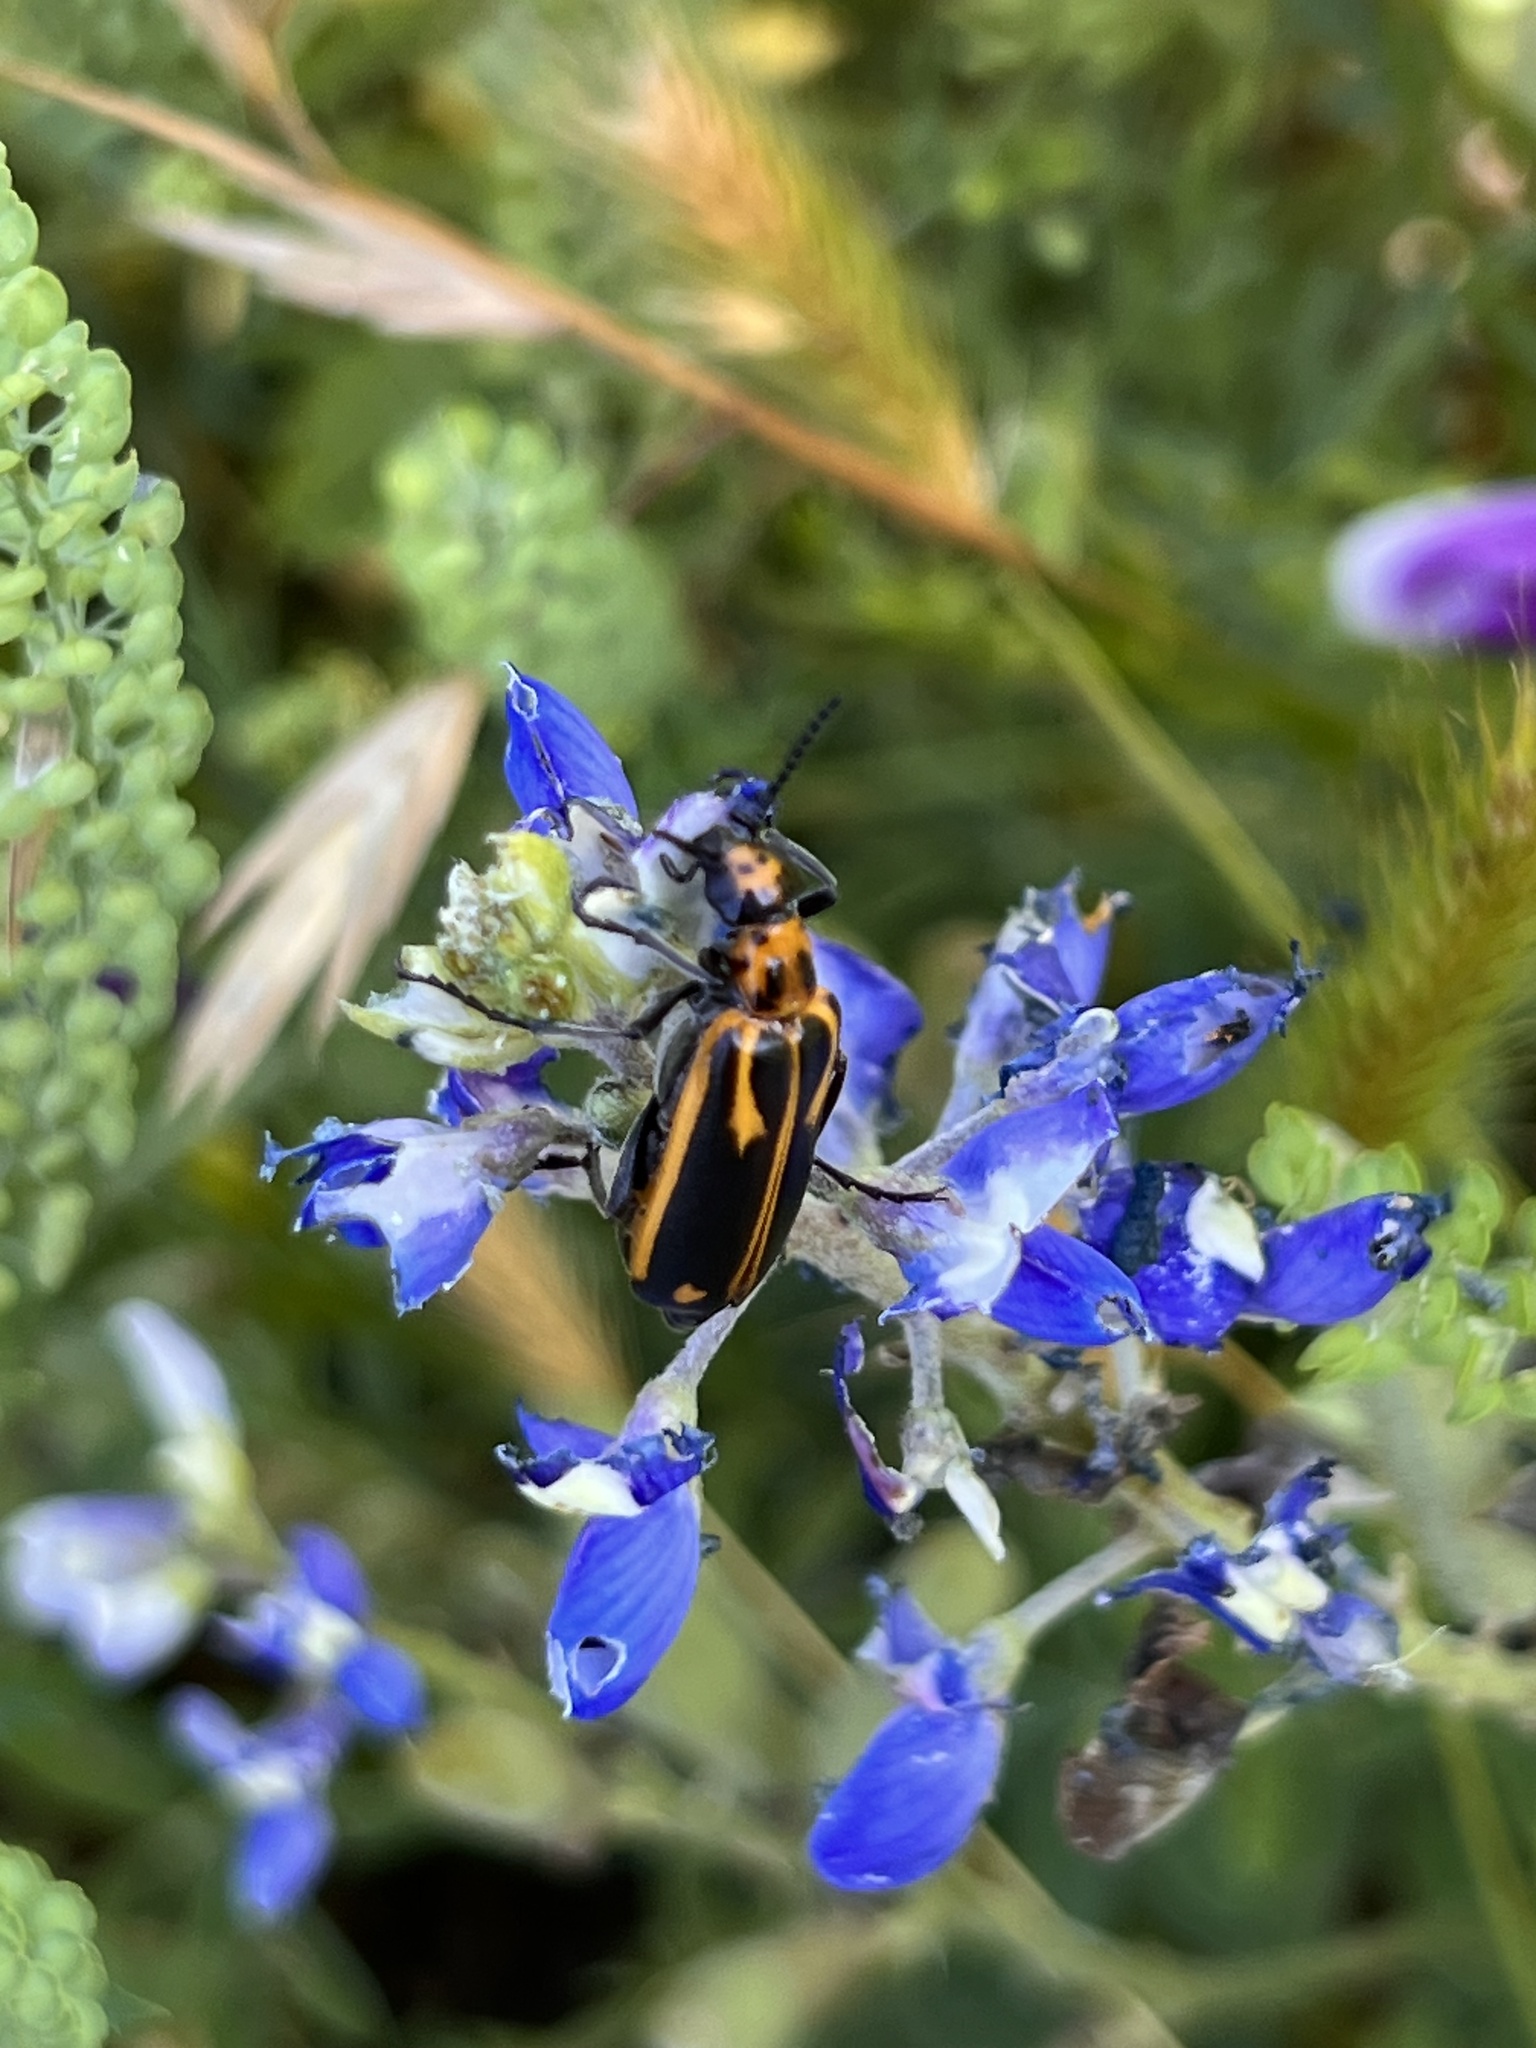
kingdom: Animalia
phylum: Arthropoda
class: Insecta
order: Coleoptera
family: Meloidae
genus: Pyrota
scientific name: Pyrota insulata
